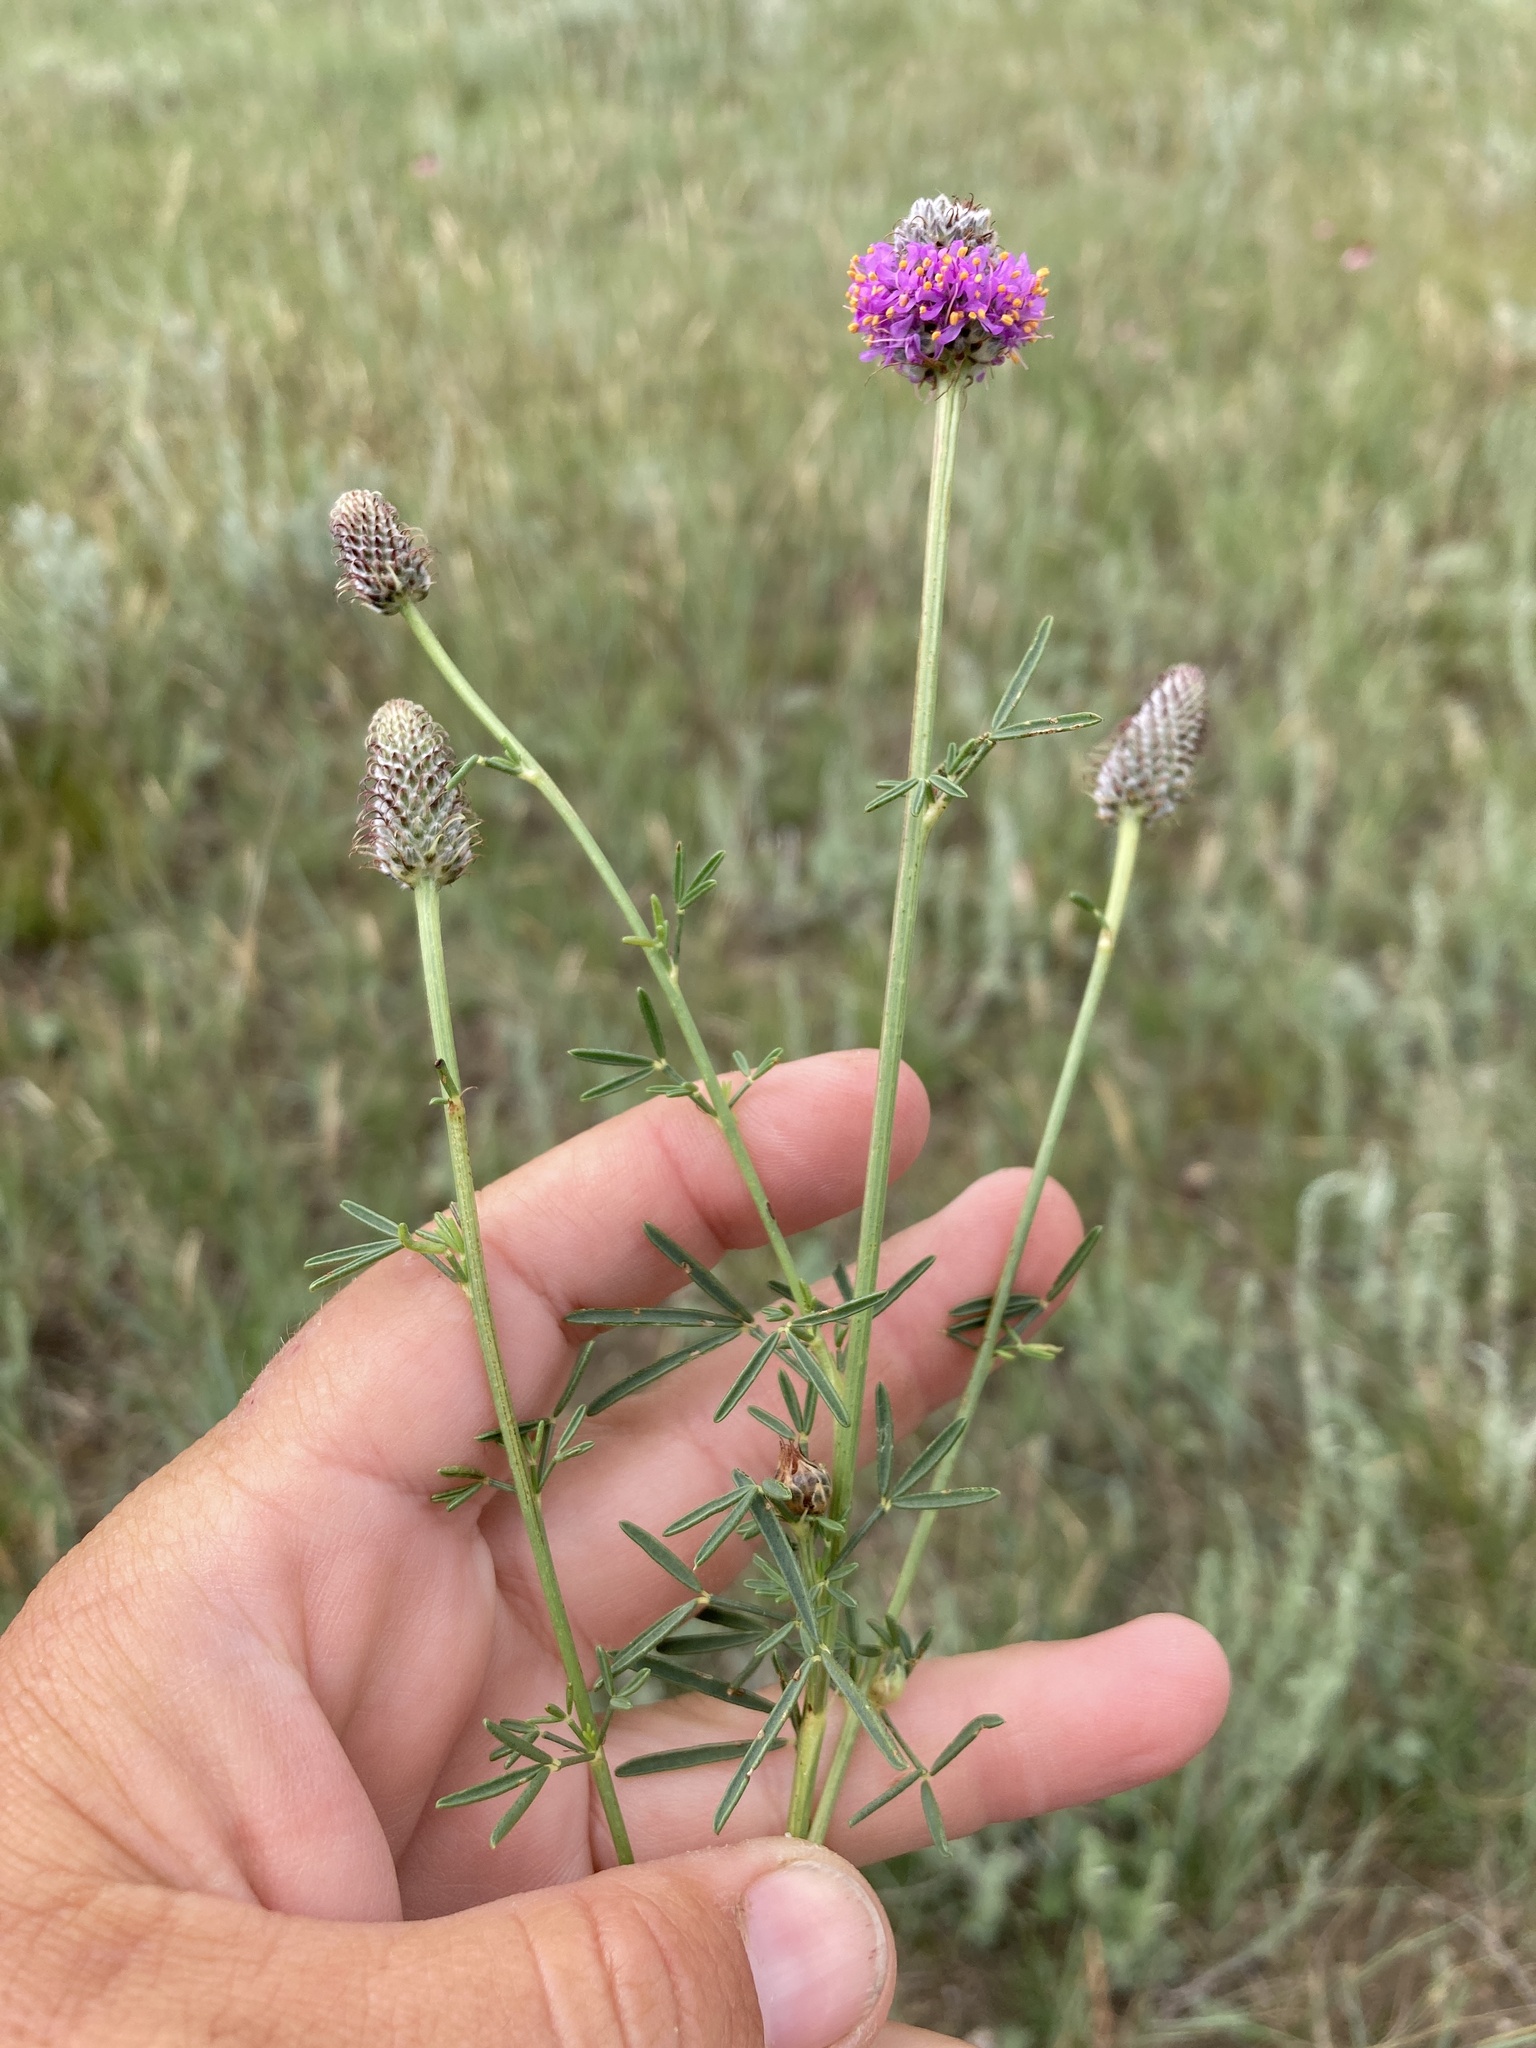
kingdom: Plantae
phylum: Tracheophyta
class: Magnoliopsida
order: Fabales
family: Fabaceae
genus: Dalea
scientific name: Dalea purpurea
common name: Purple prairie-clover
